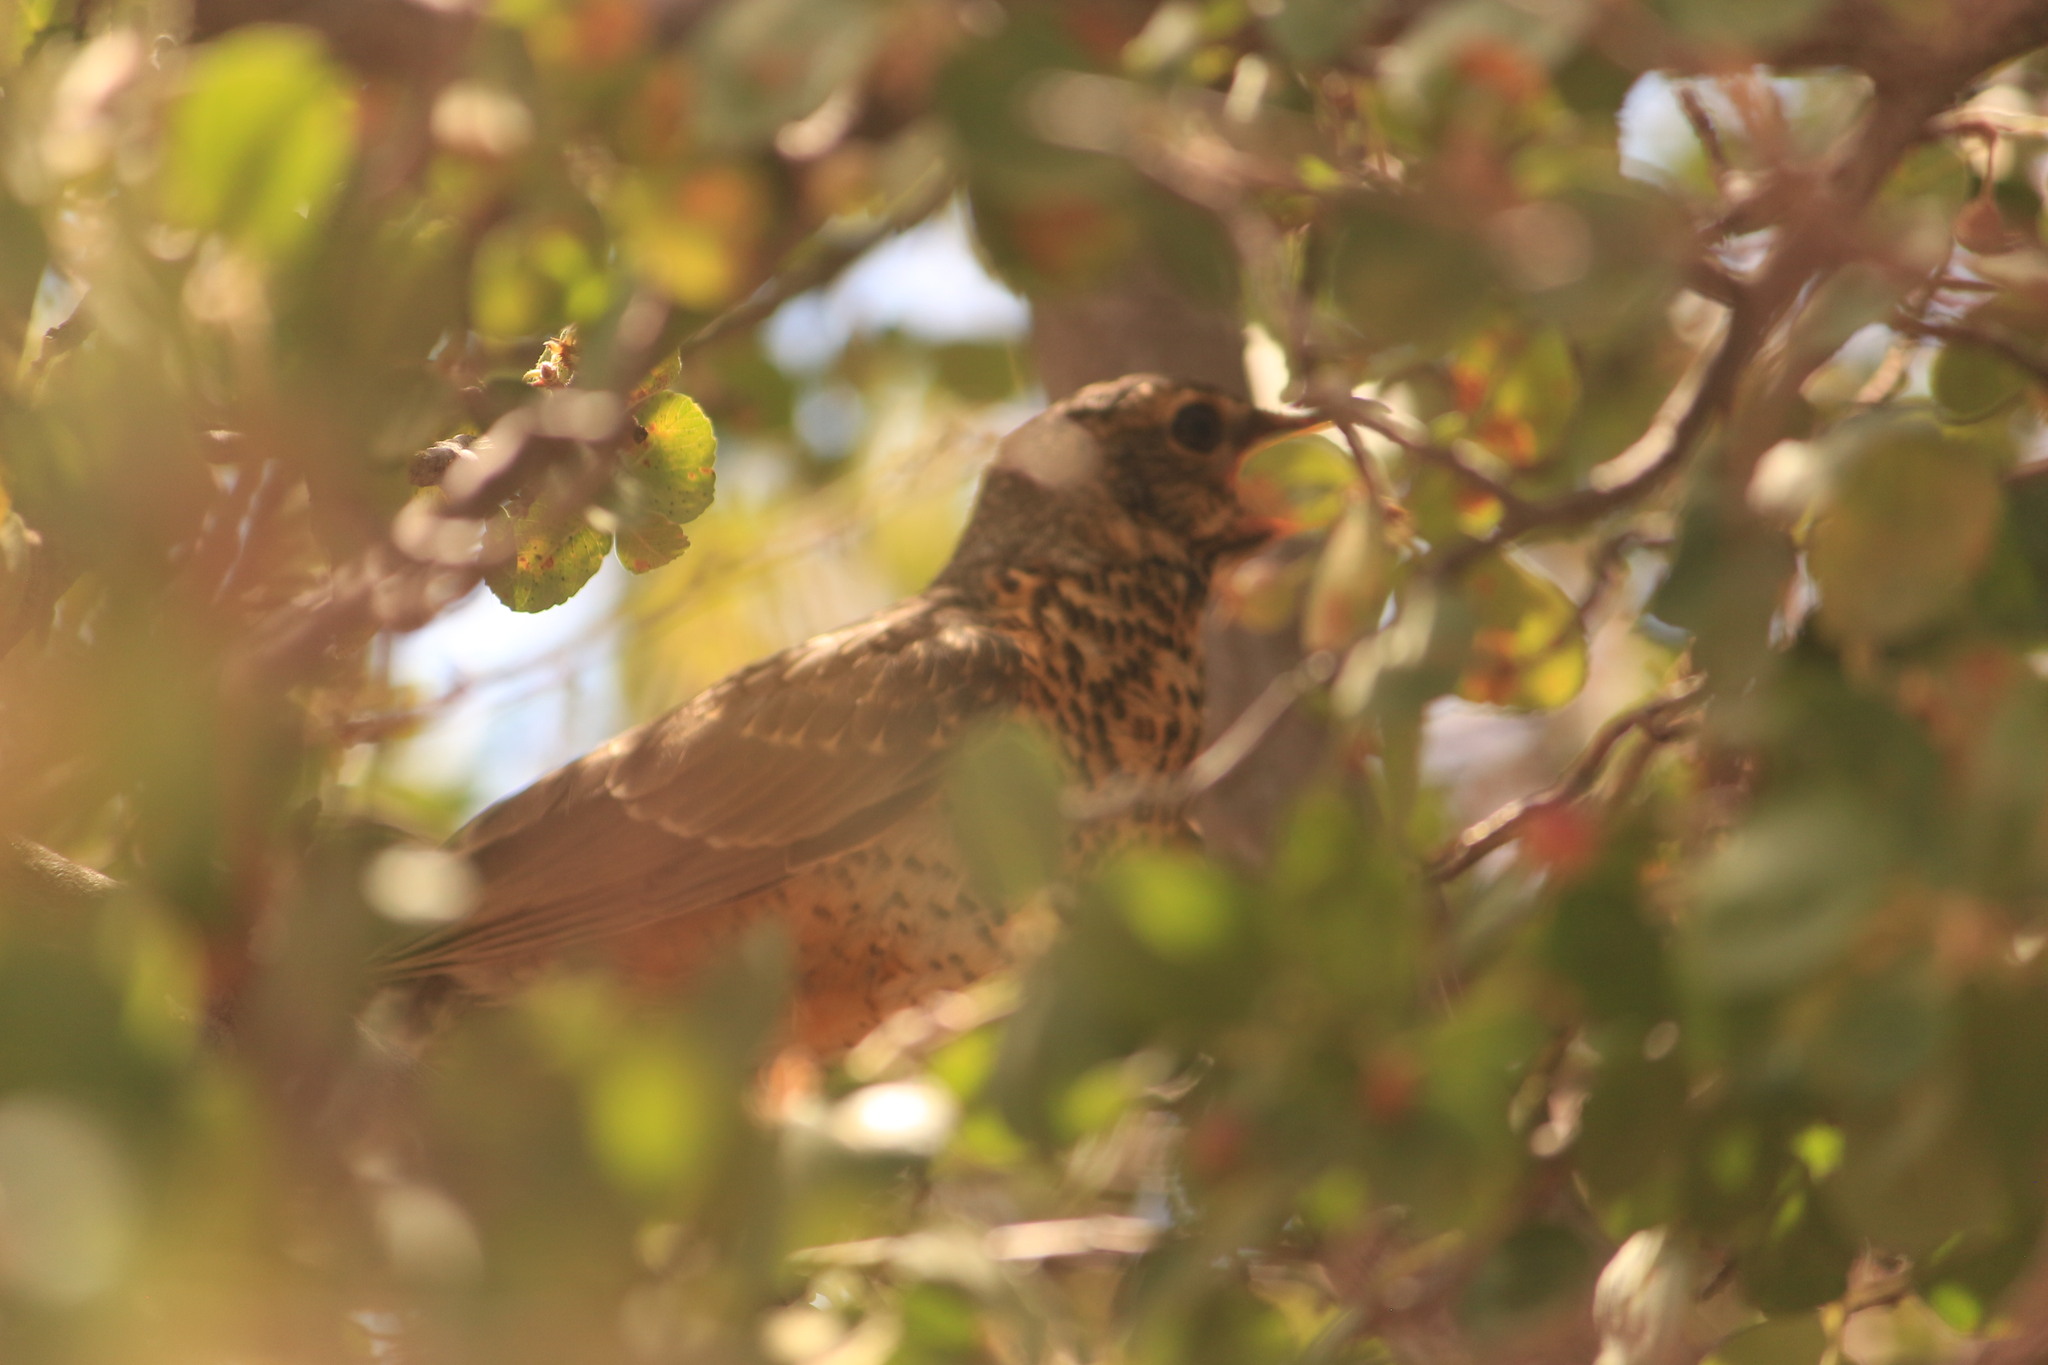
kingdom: Animalia
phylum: Chordata
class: Aves
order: Passeriformes
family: Turdidae
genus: Turdus
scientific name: Turdus migratorius
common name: American robin
